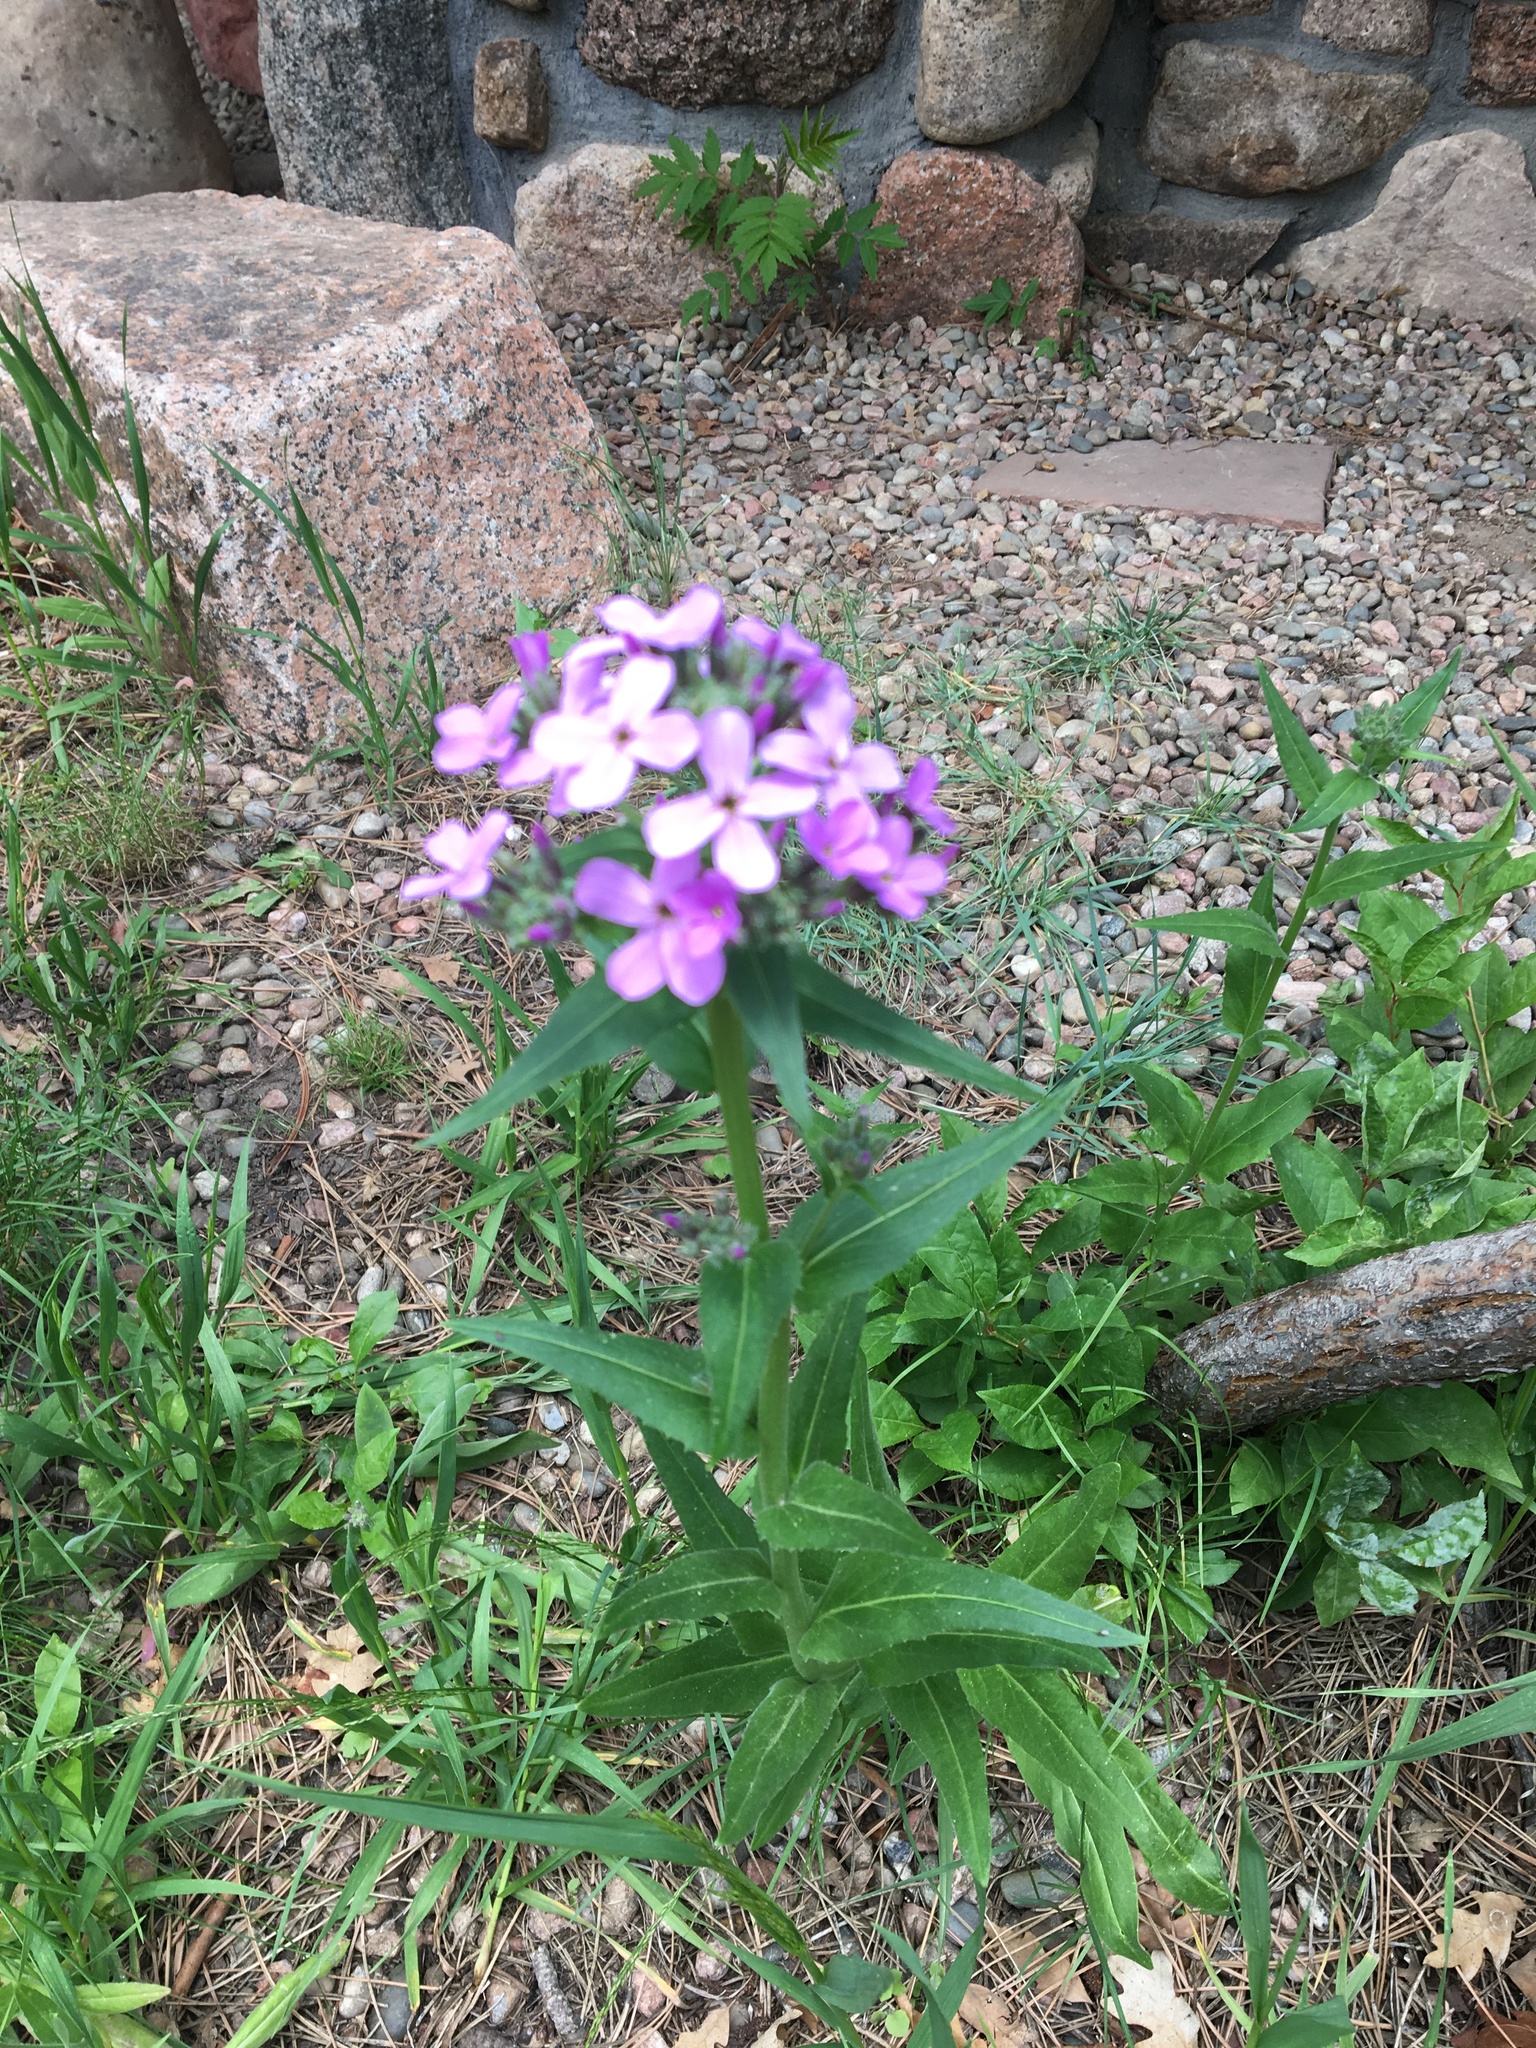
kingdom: Plantae
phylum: Tracheophyta
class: Magnoliopsida
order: Brassicales
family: Brassicaceae
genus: Hesperis
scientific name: Hesperis matronalis
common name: Dame's-violet
